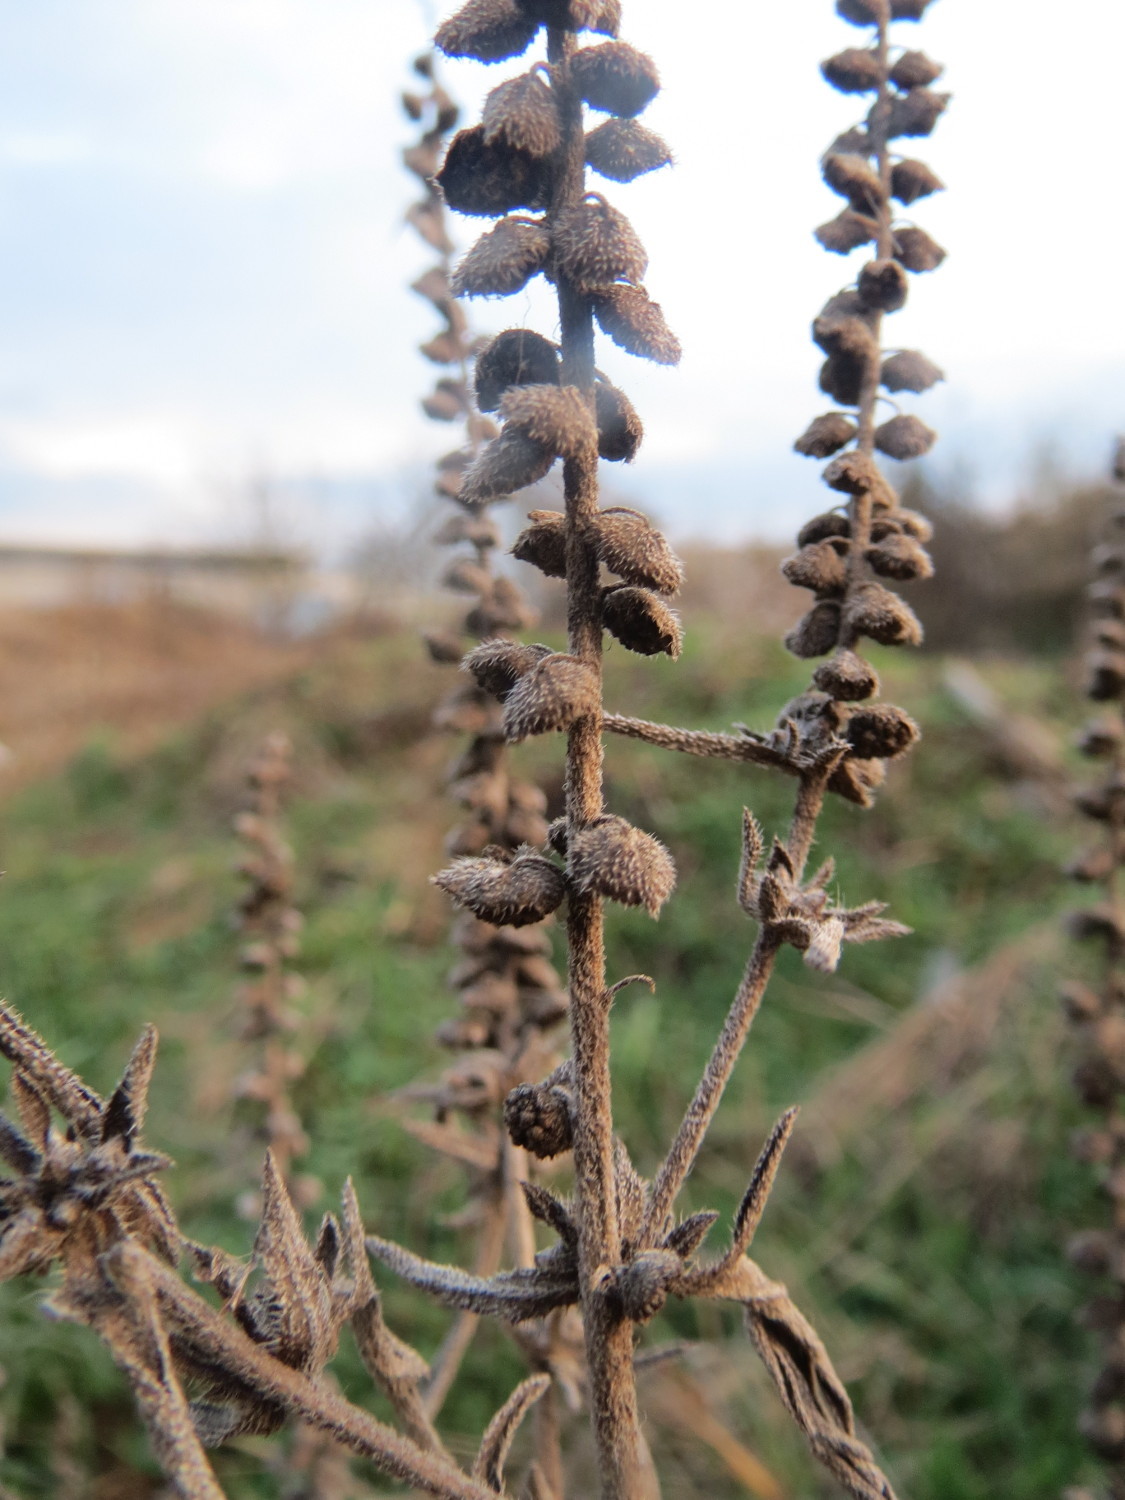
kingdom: Plantae
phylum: Tracheophyta
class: Magnoliopsida
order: Asterales
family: Asteraceae
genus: Ambrosia
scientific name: Ambrosia artemisiifolia
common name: Annual ragweed
